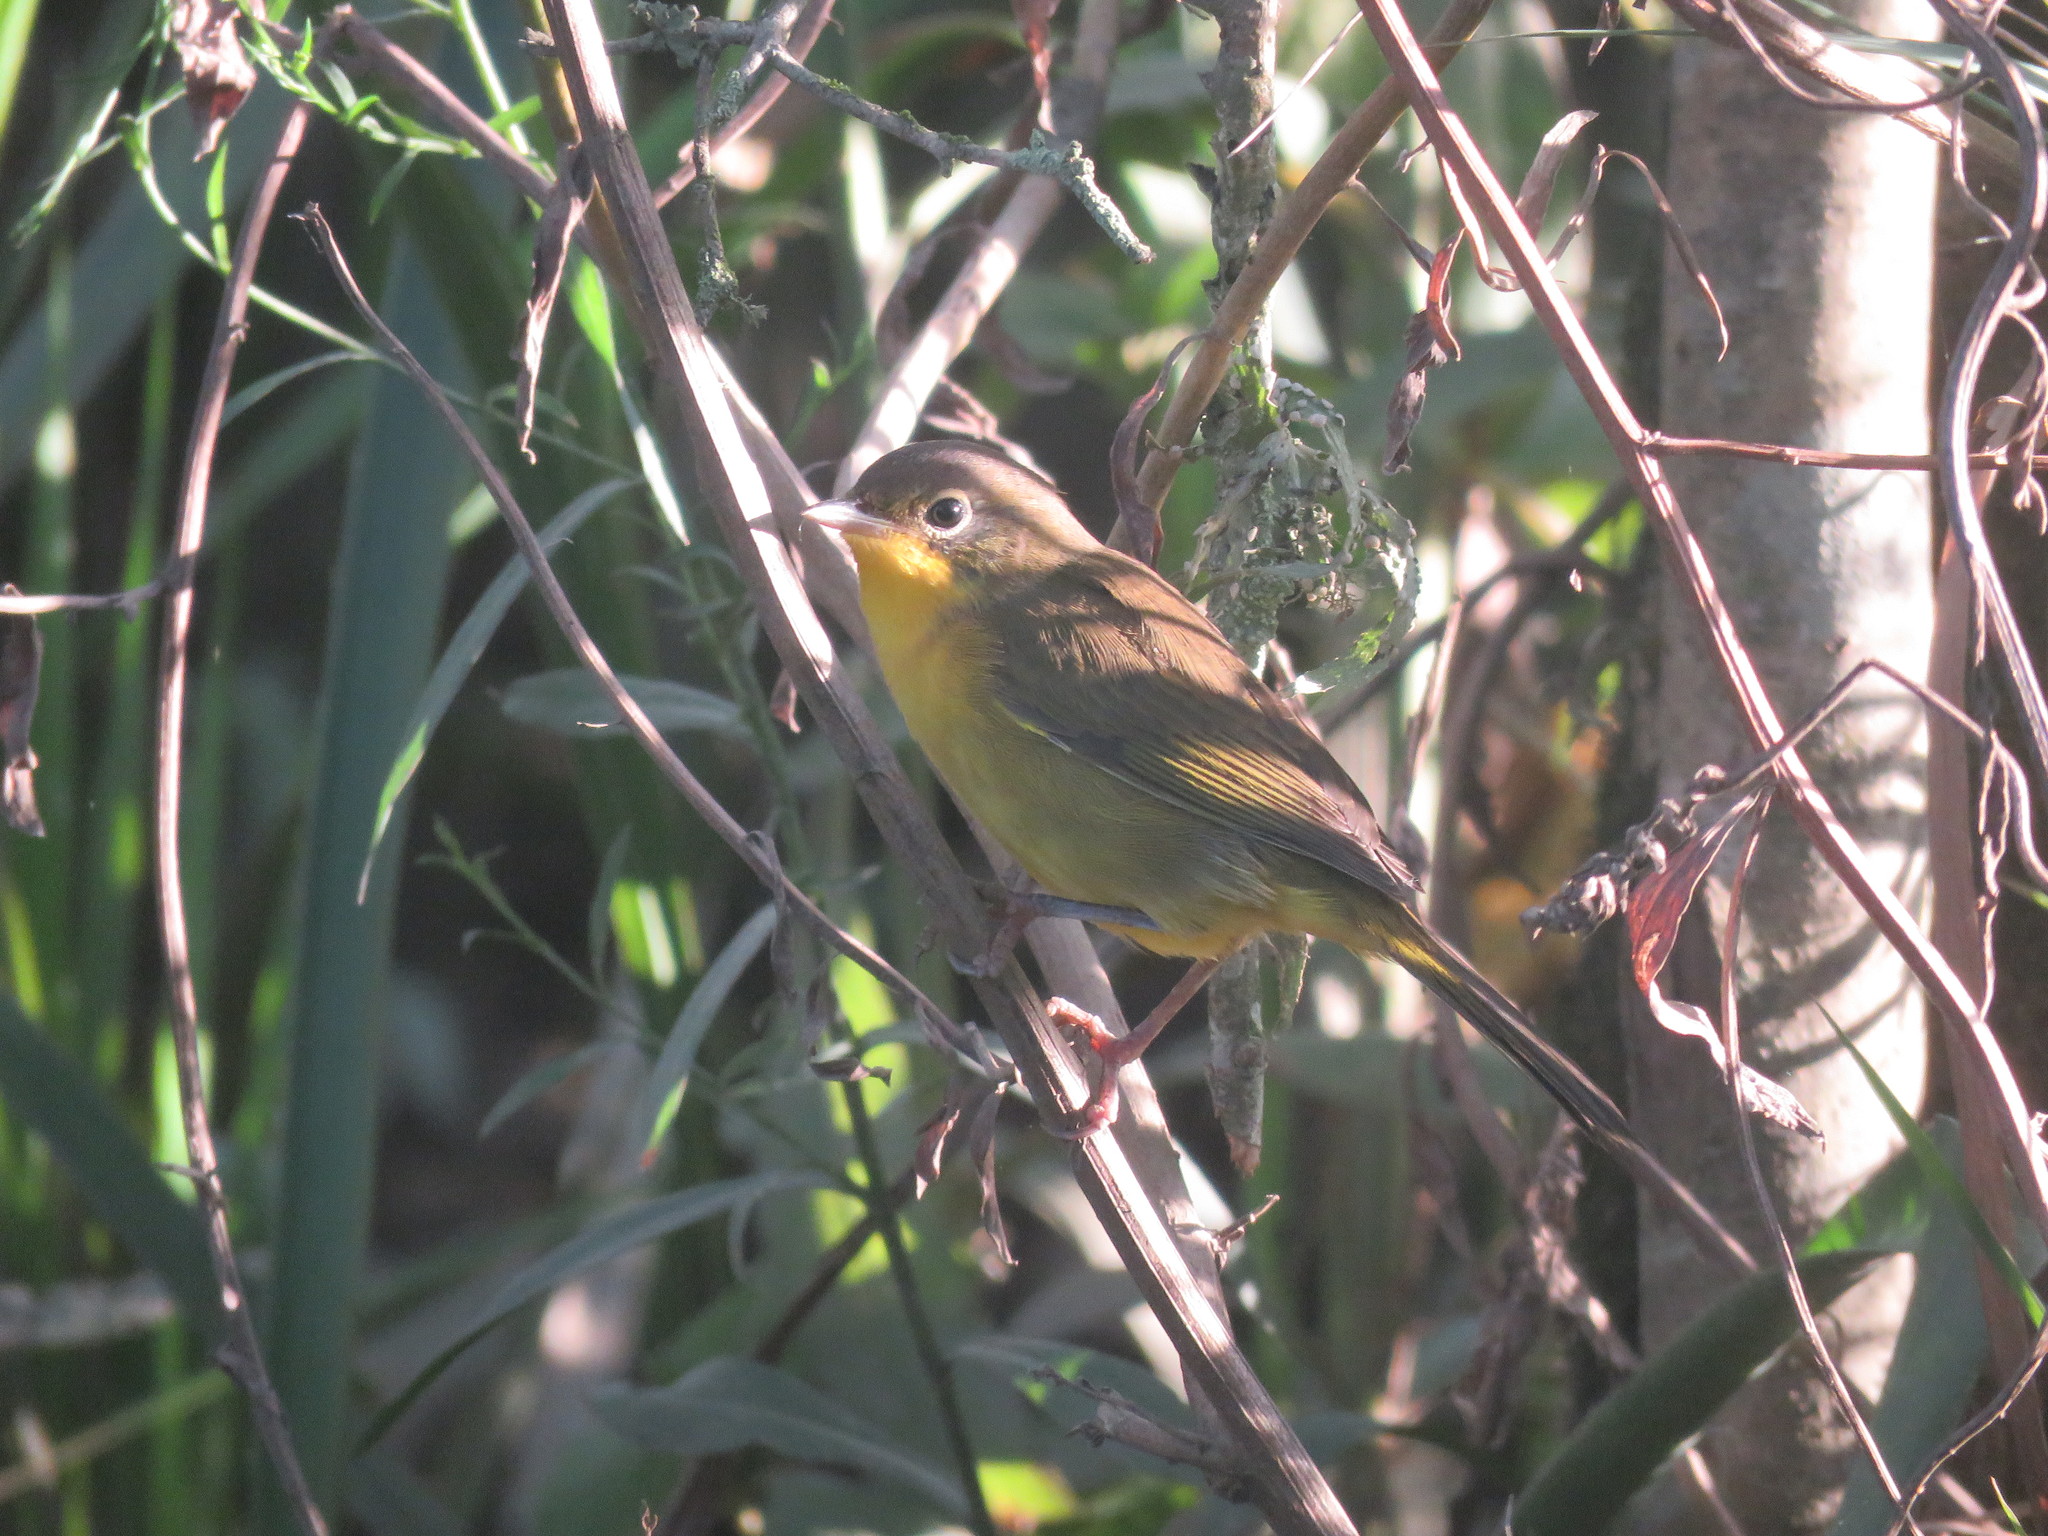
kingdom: Animalia
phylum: Chordata
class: Aves
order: Passeriformes
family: Parulidae
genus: Geothlypis
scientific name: Geothlypis velata
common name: Southern yellowthroat
